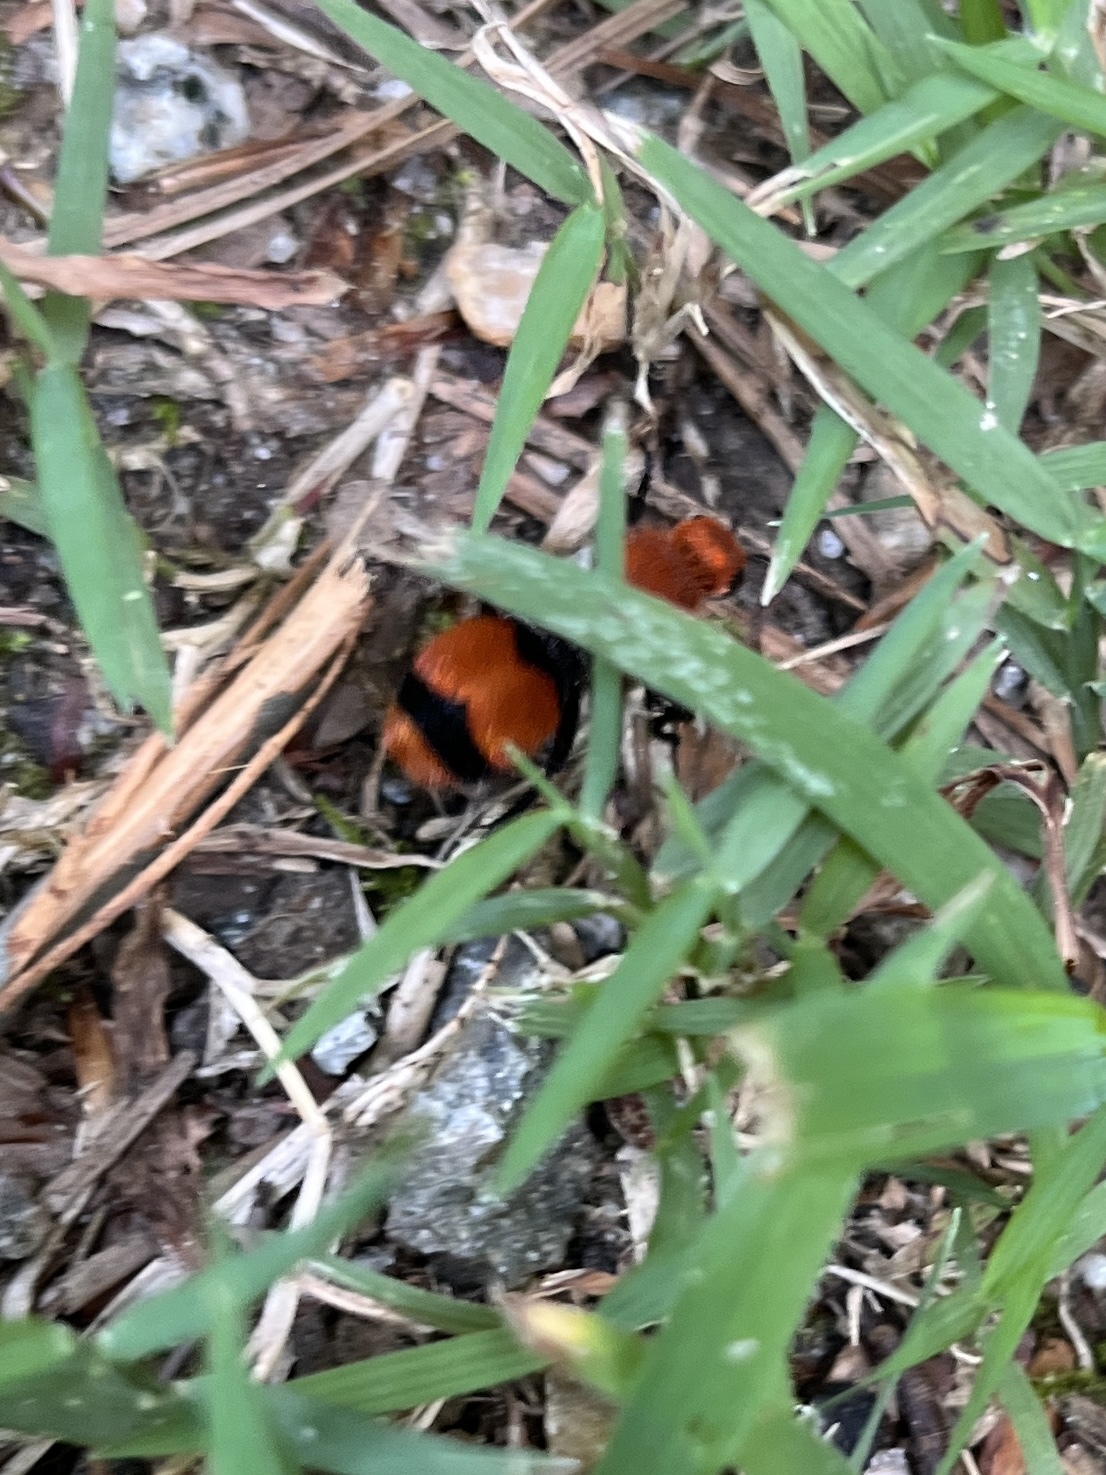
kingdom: Animalia
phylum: Arthropoda
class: Insecta
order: Hymenoptera
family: Mutillidae
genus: Dasymutilla
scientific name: Dasymutilla occidentalis
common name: Common eastern velvet ant
